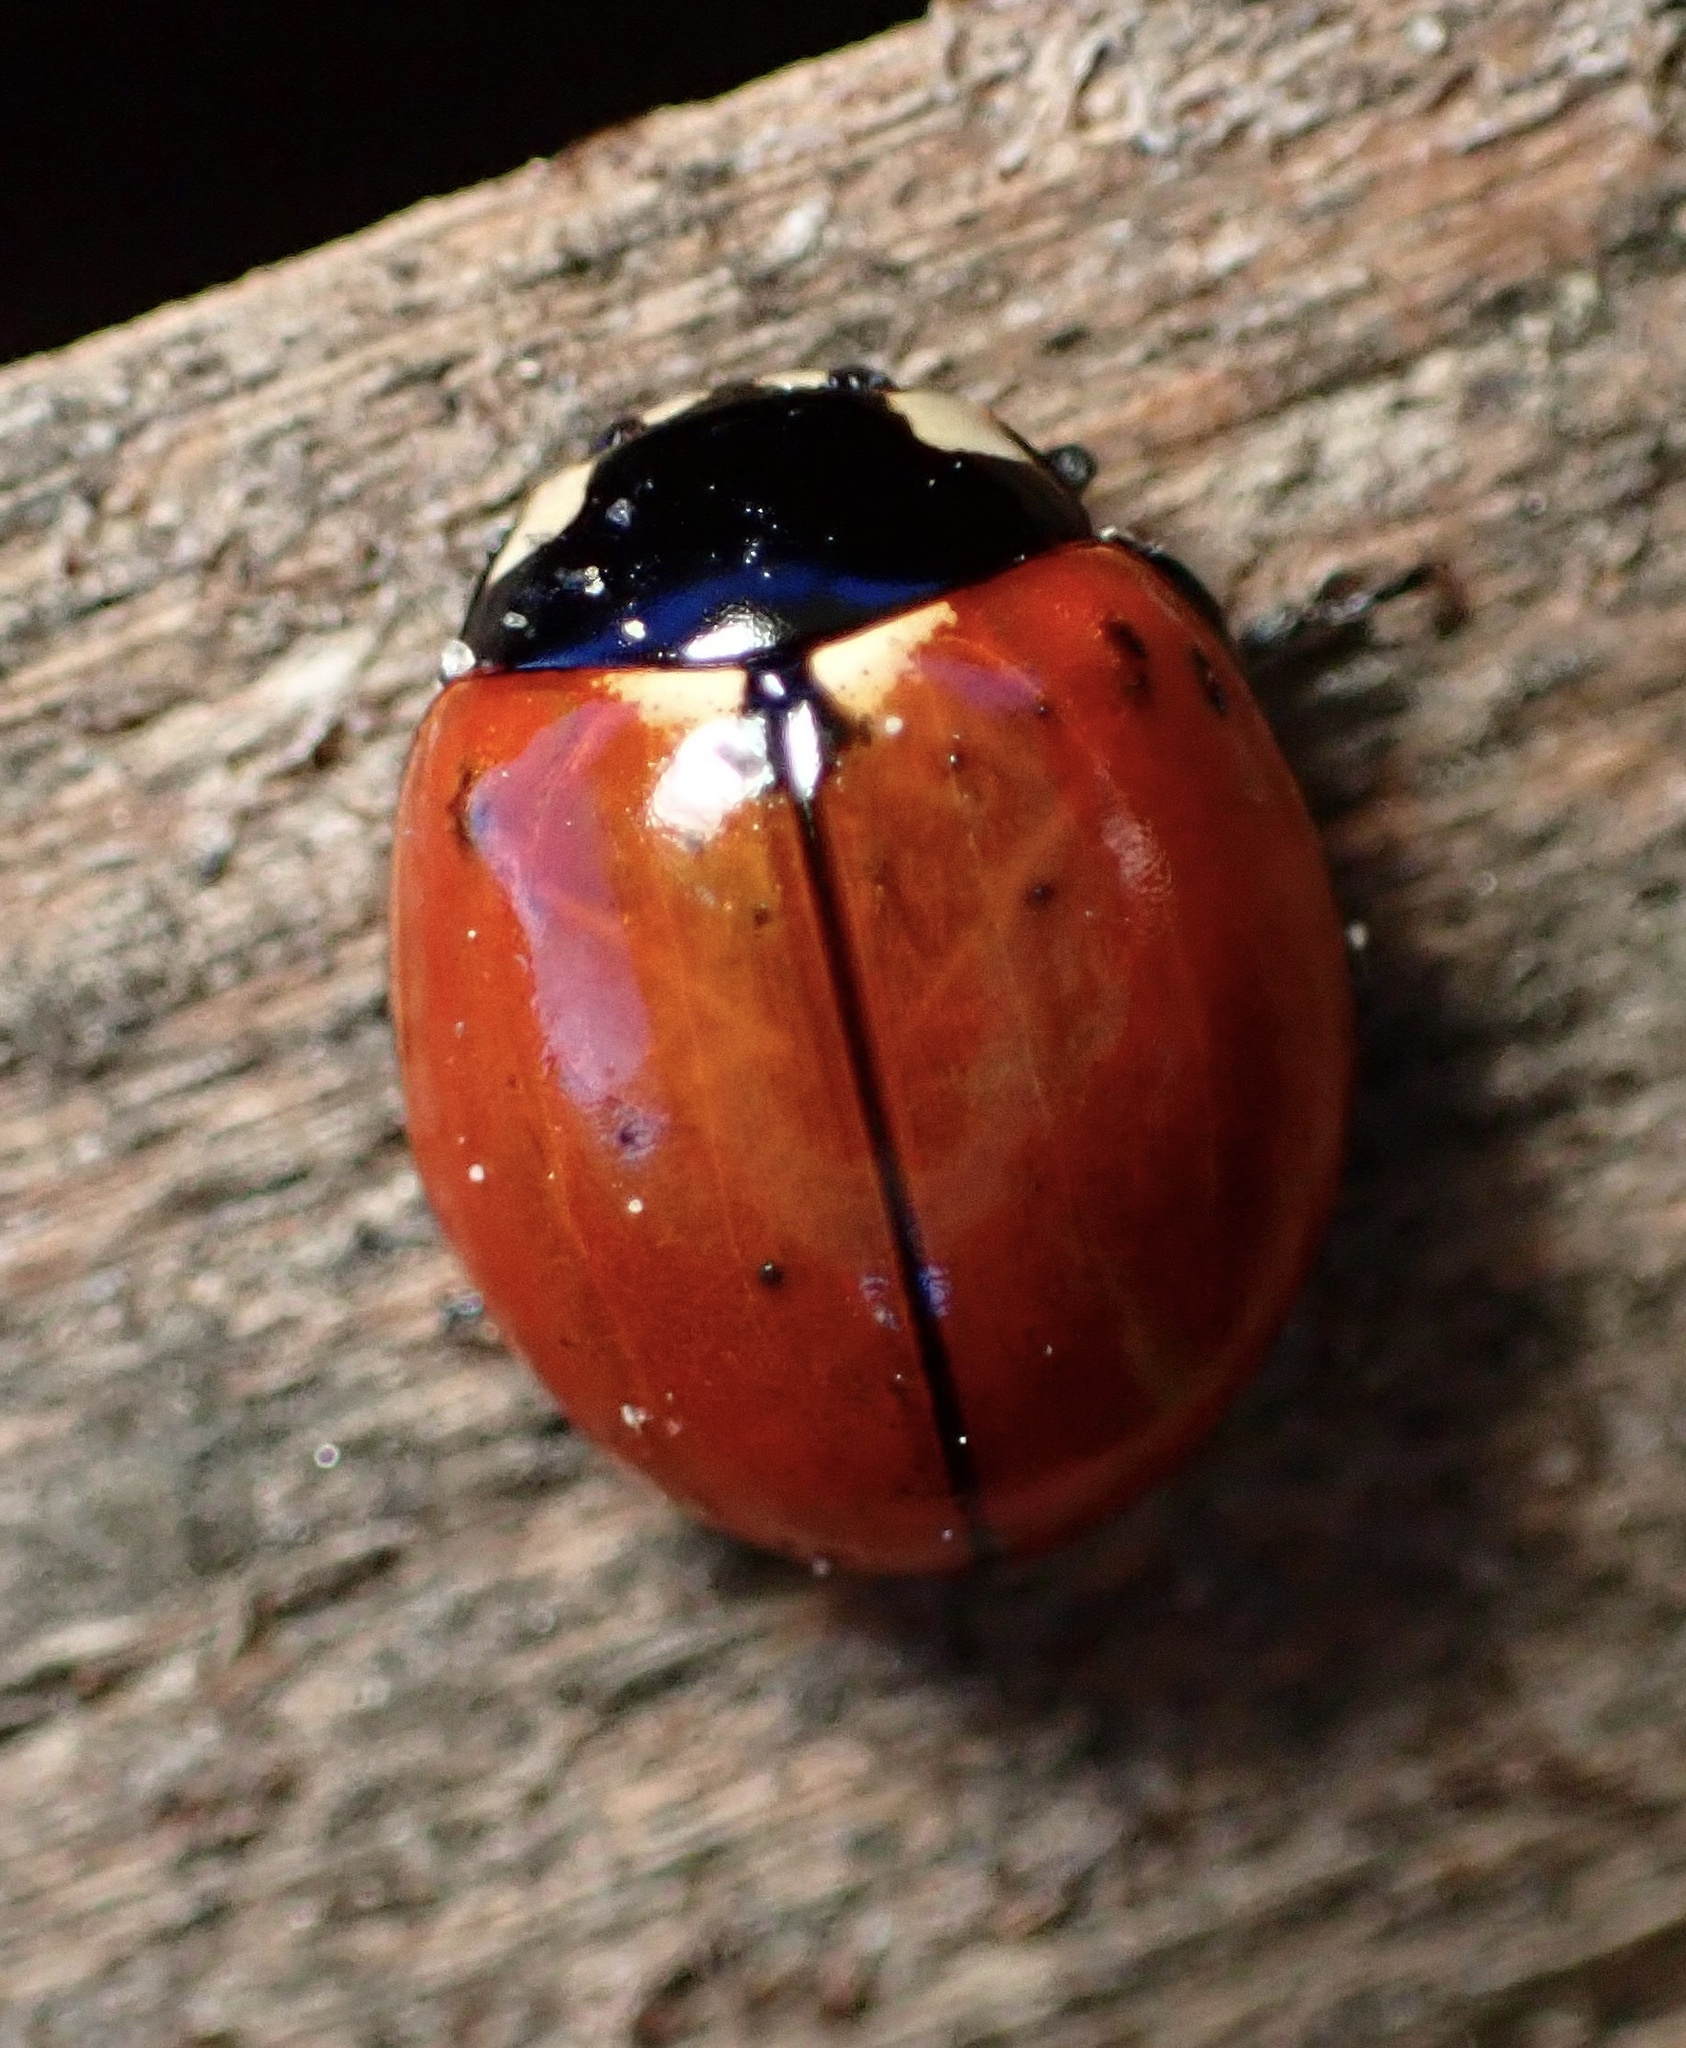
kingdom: Animalia
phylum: Arthropoda
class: Insecta
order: Coleoptera
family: Coccinellidae
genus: Coccinella
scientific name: Coccinella californica
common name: Lady beetle
